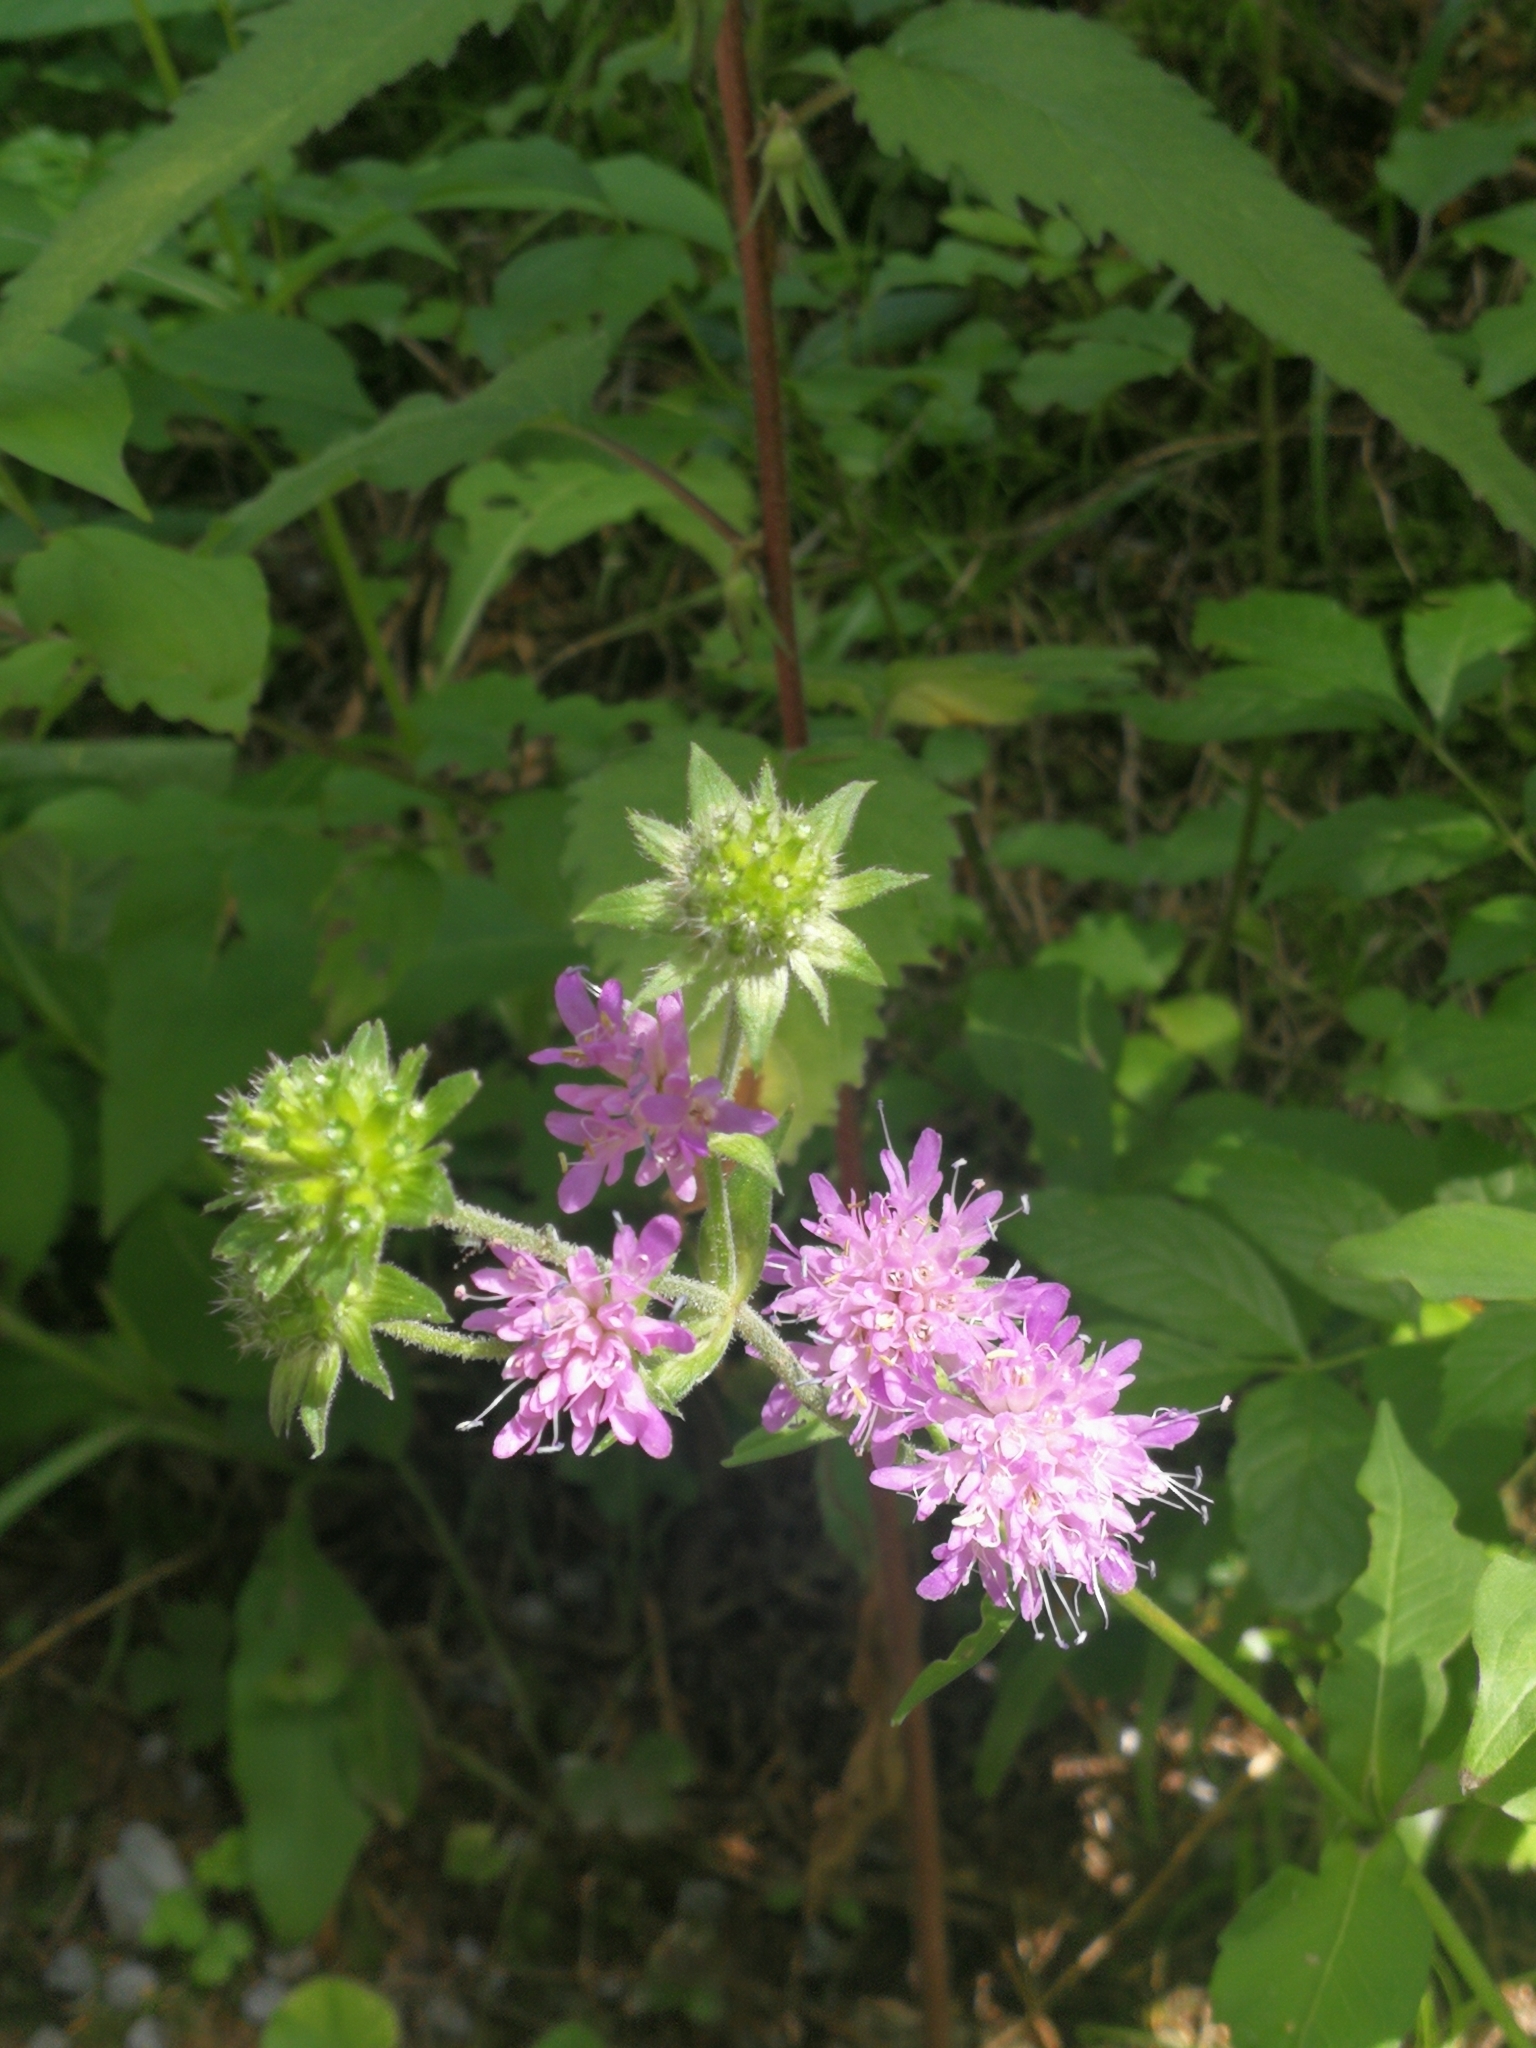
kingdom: Plantae
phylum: Tracheophyta
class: Magnoliopsida
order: Dipsacales
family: Caprifoliaceae
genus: Knautia
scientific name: Knautia dipsacifolia
